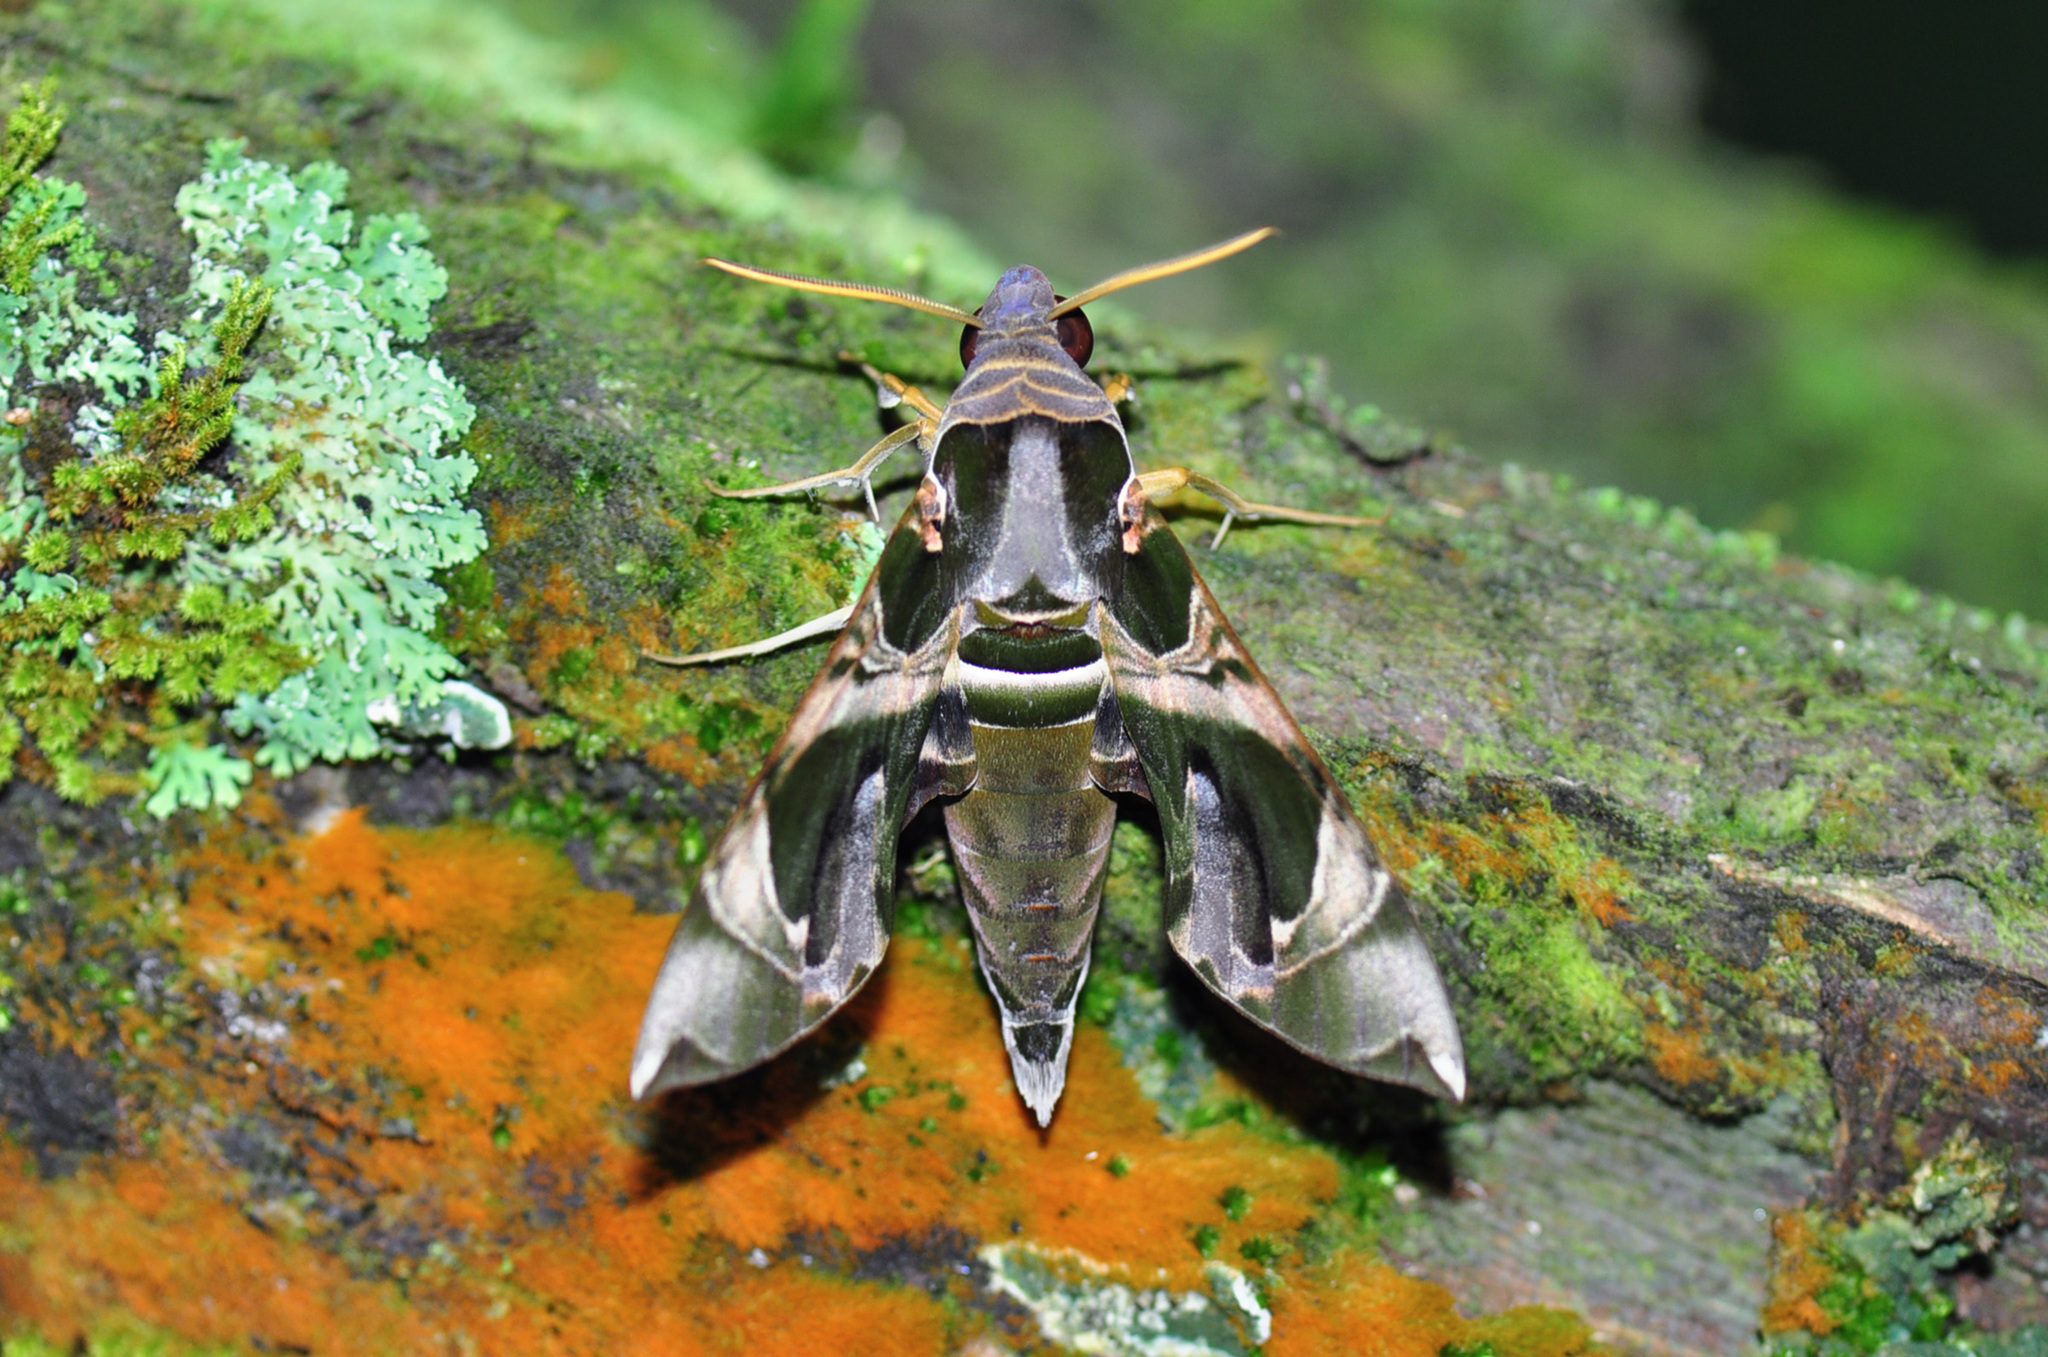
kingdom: Animalia
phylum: Arthropoda
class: Insecta
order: Lepidoptera
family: Sphingidae
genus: Daphnis
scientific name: Daphnis hypothous
